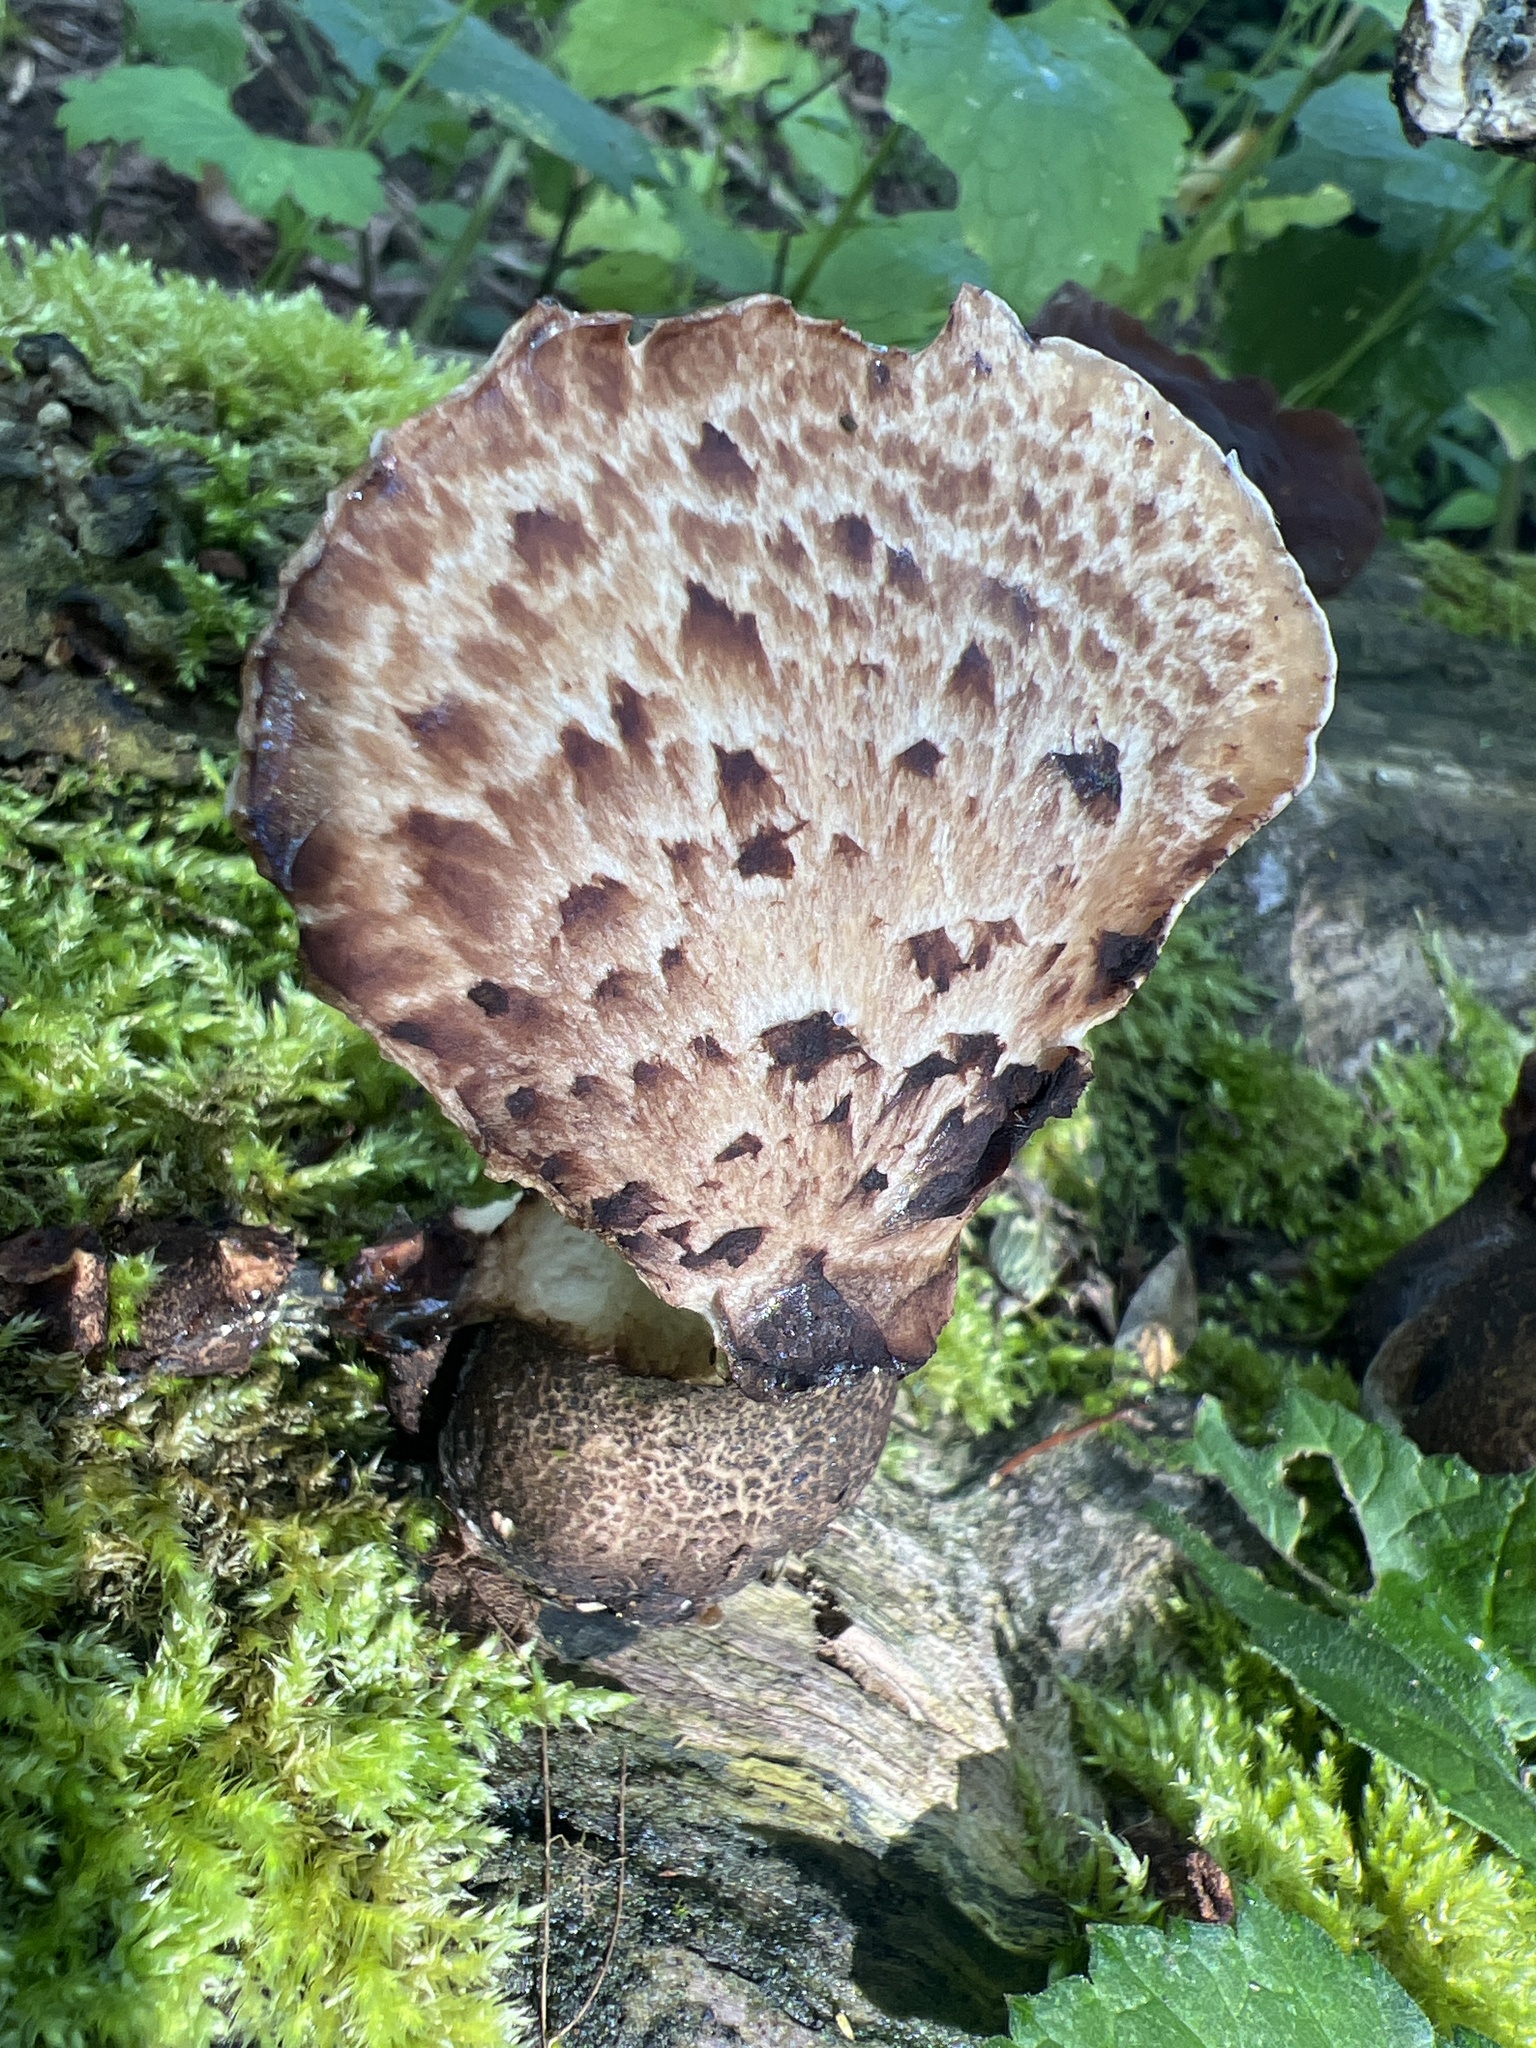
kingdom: Fungi
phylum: Basidiomycota
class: Agaricomycetes
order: Polyporales
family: Polyporaceae
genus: Cerioporus
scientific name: Cerioporus squamosus
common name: Dryad's saddle
